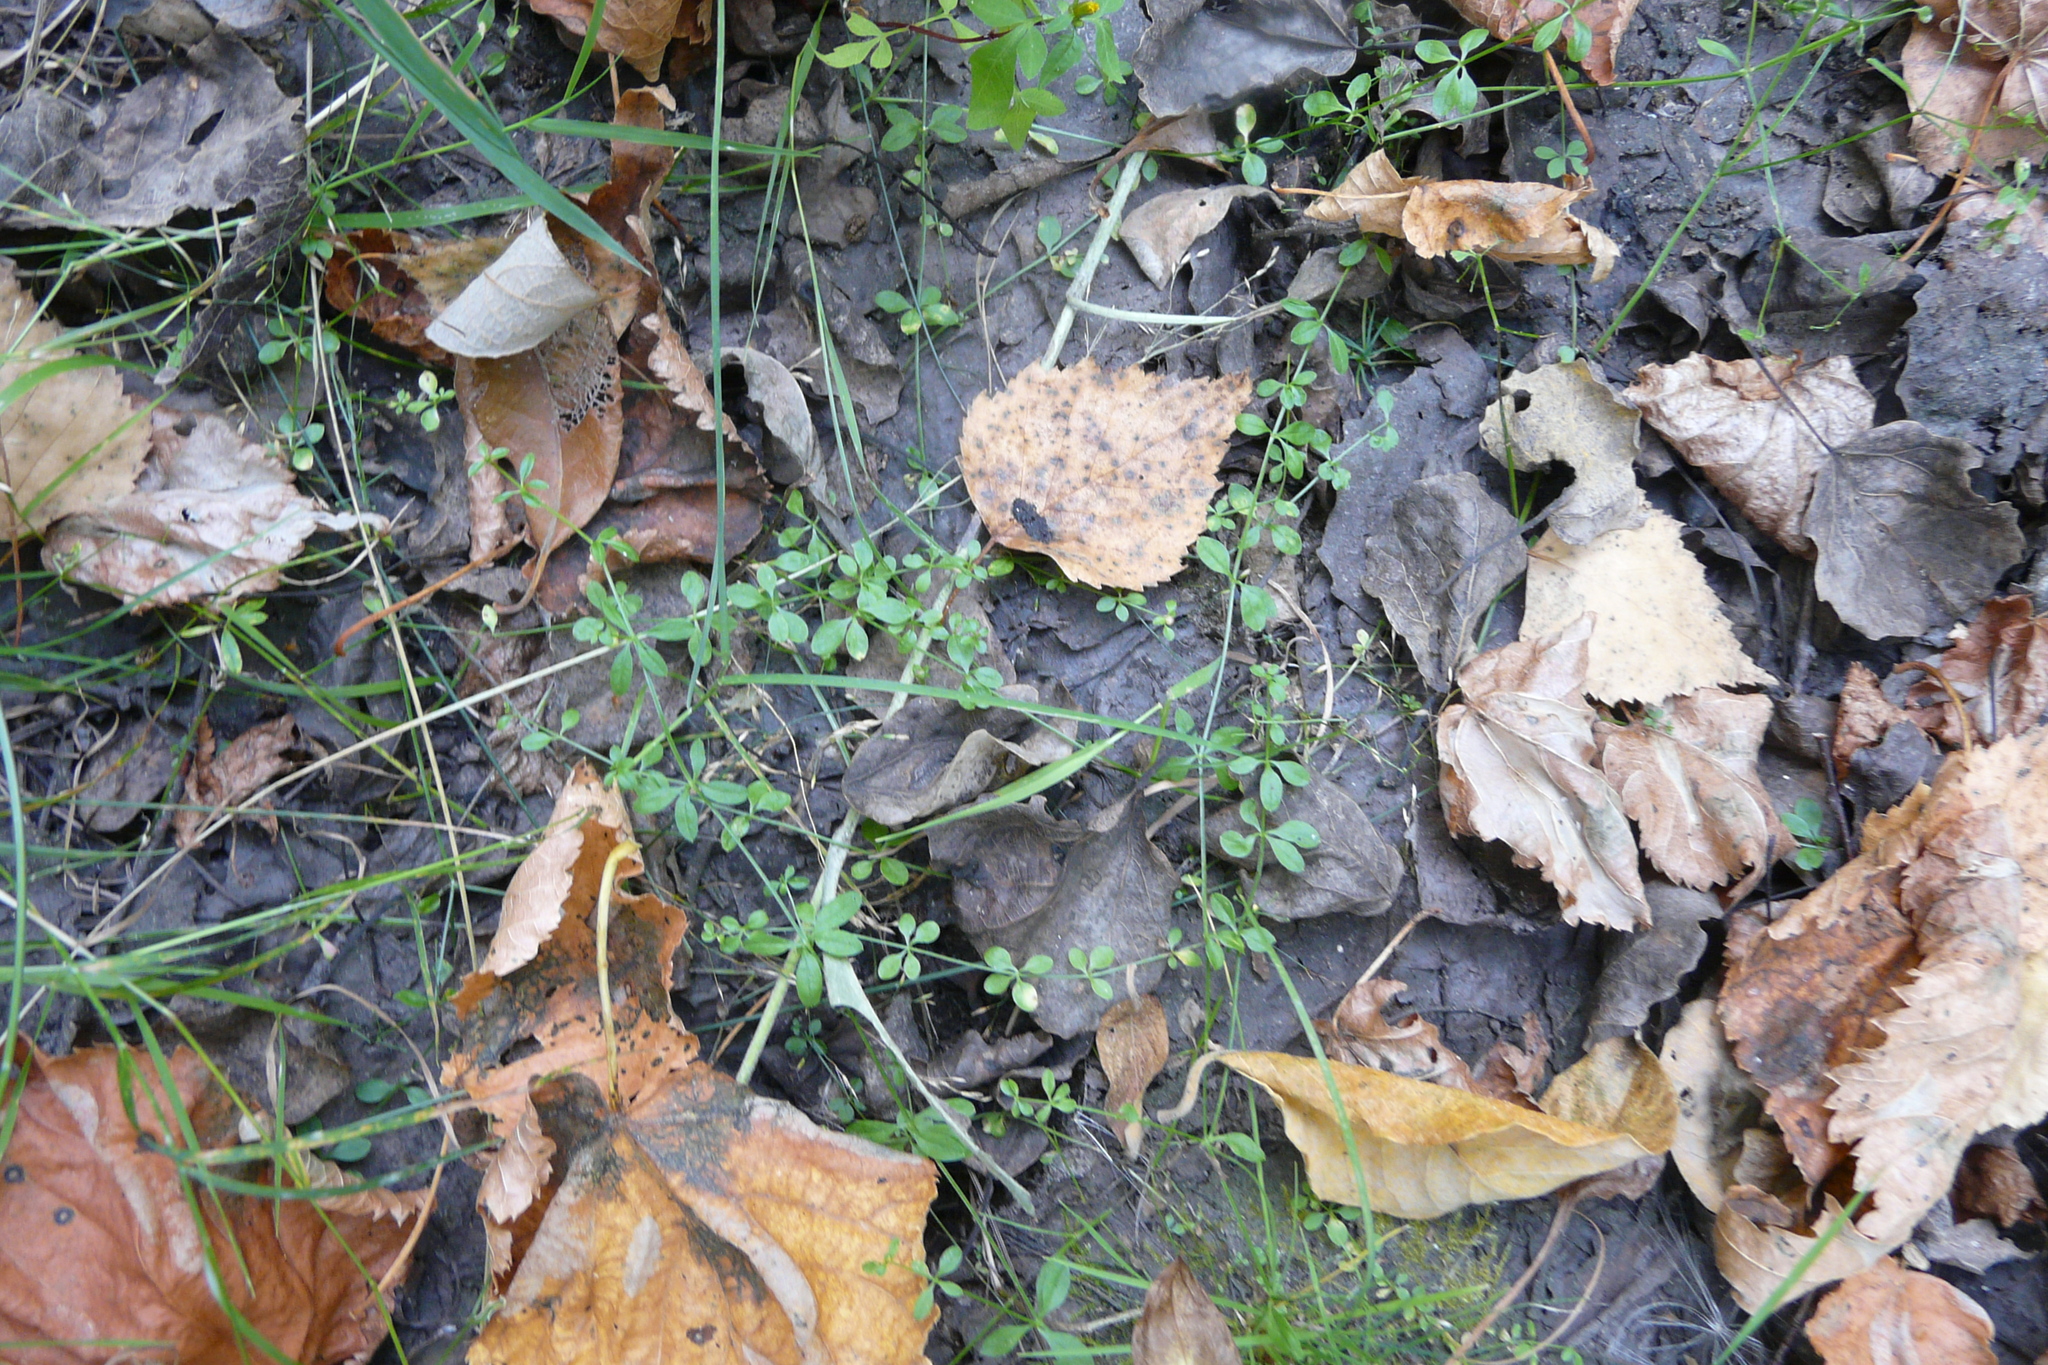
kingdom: Plantae
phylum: Tracheophyta
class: Magnoliopsida
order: Gentianales
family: Rubiaceae
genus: Galium
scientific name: Galium palustre
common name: Common marsh-bedstraw
